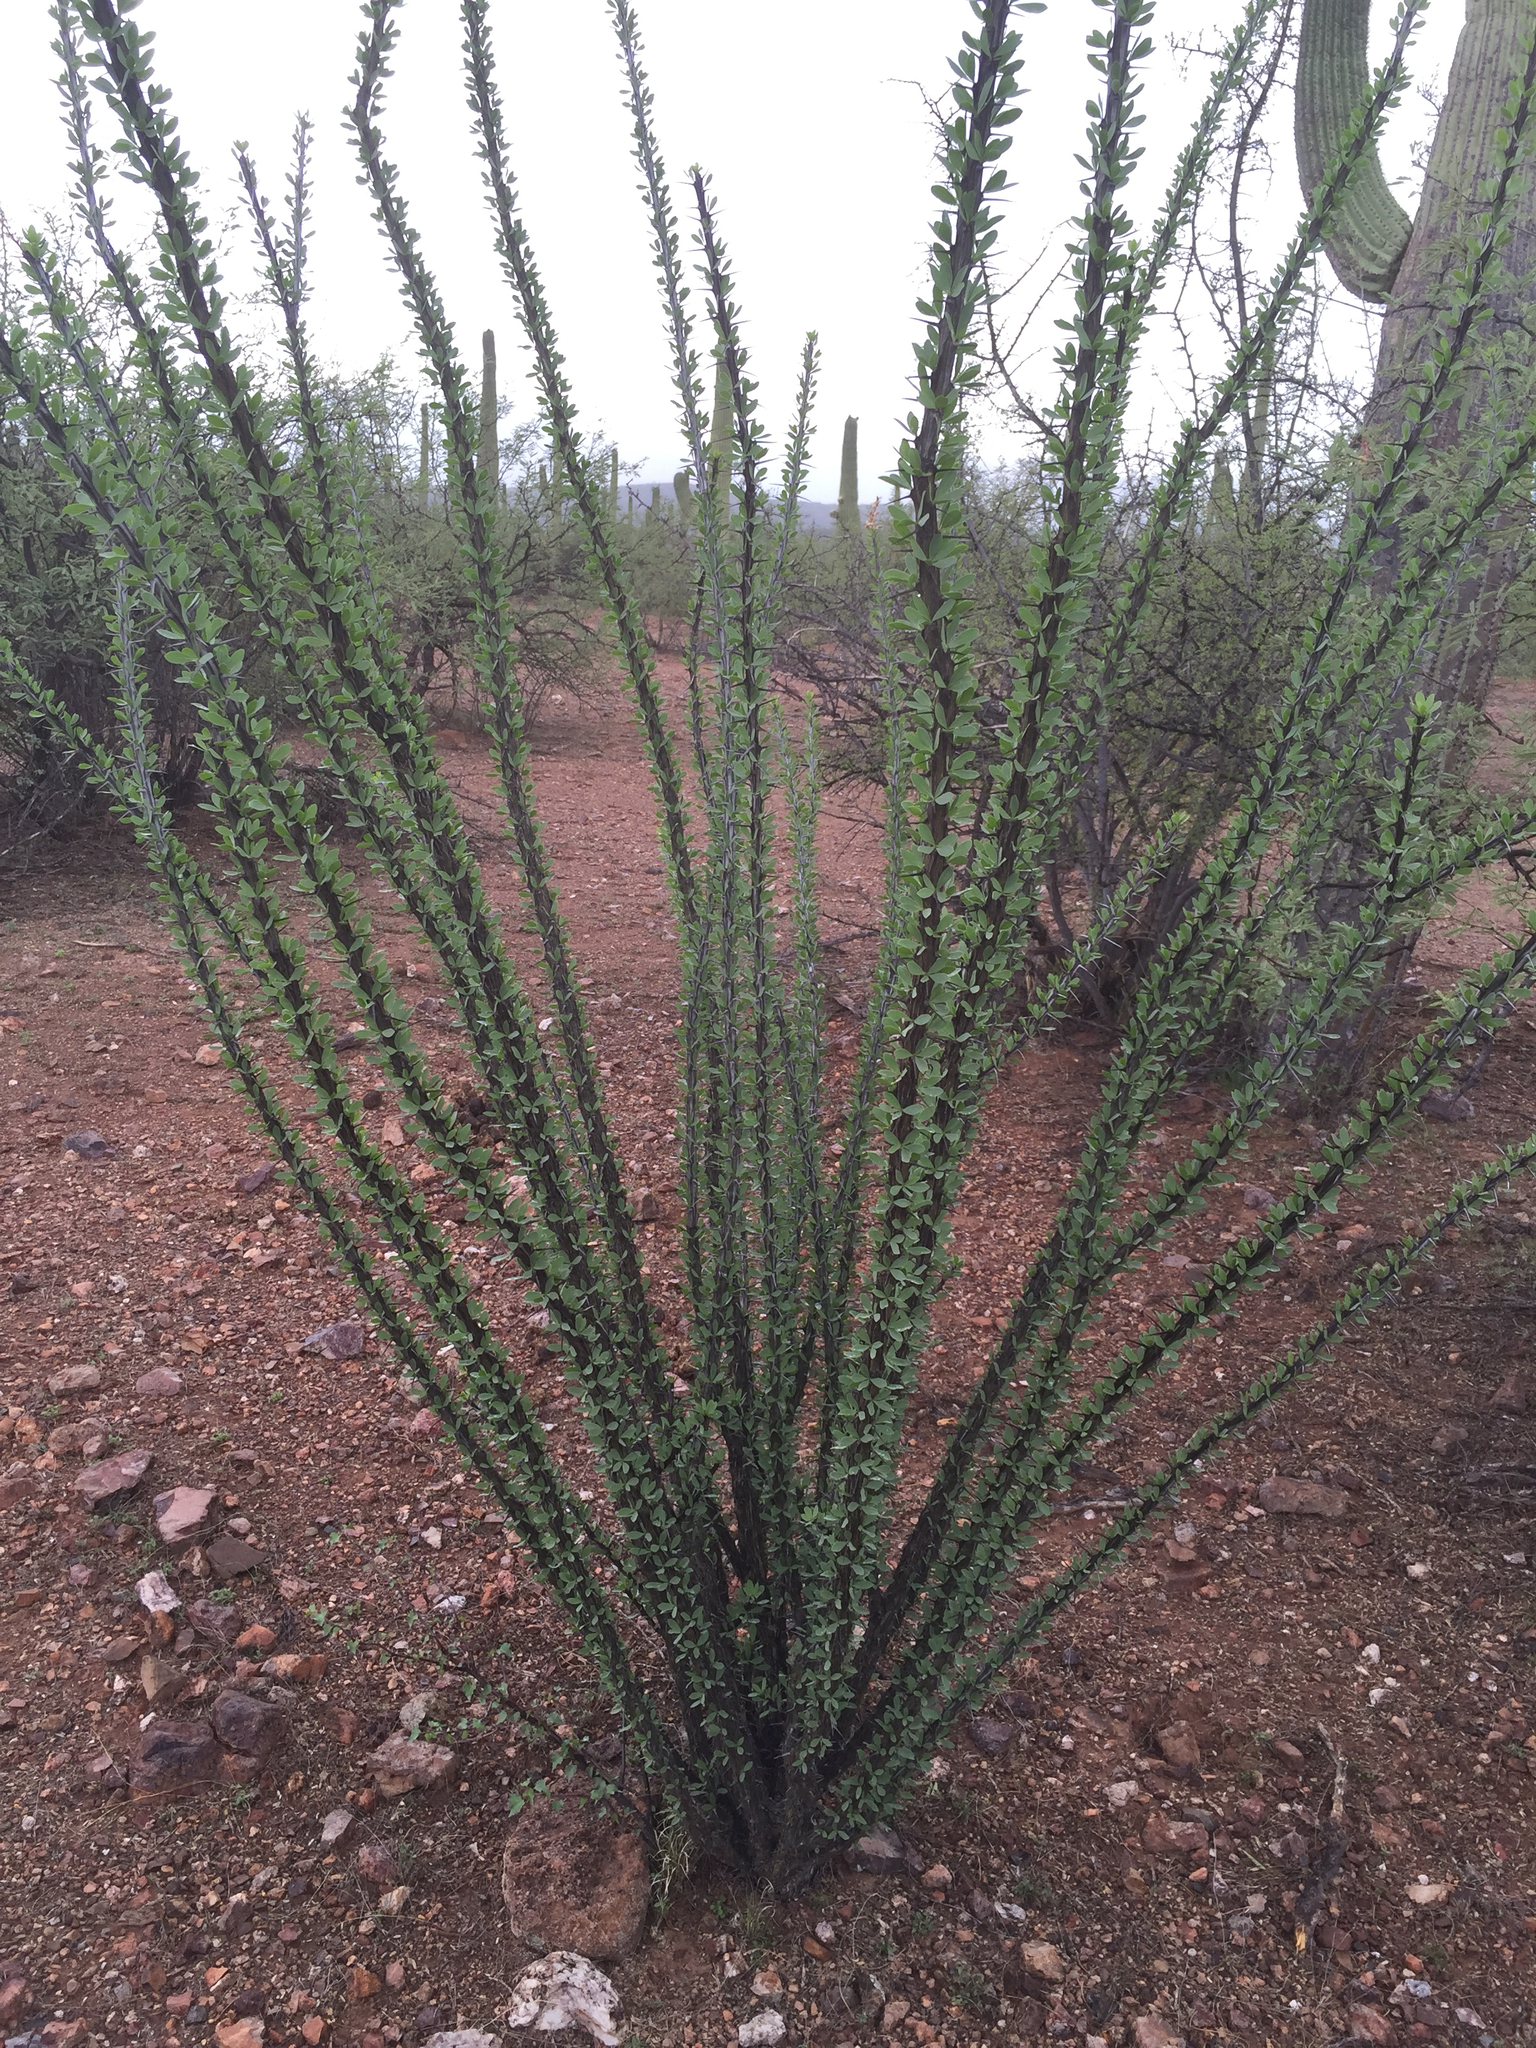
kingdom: Plantae
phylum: Tracheophyta
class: Magnoliopsida
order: Ericales
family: Fouquieriaceae
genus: Fouquieria
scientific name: Fouquieria splendens
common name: Vine-cactus
